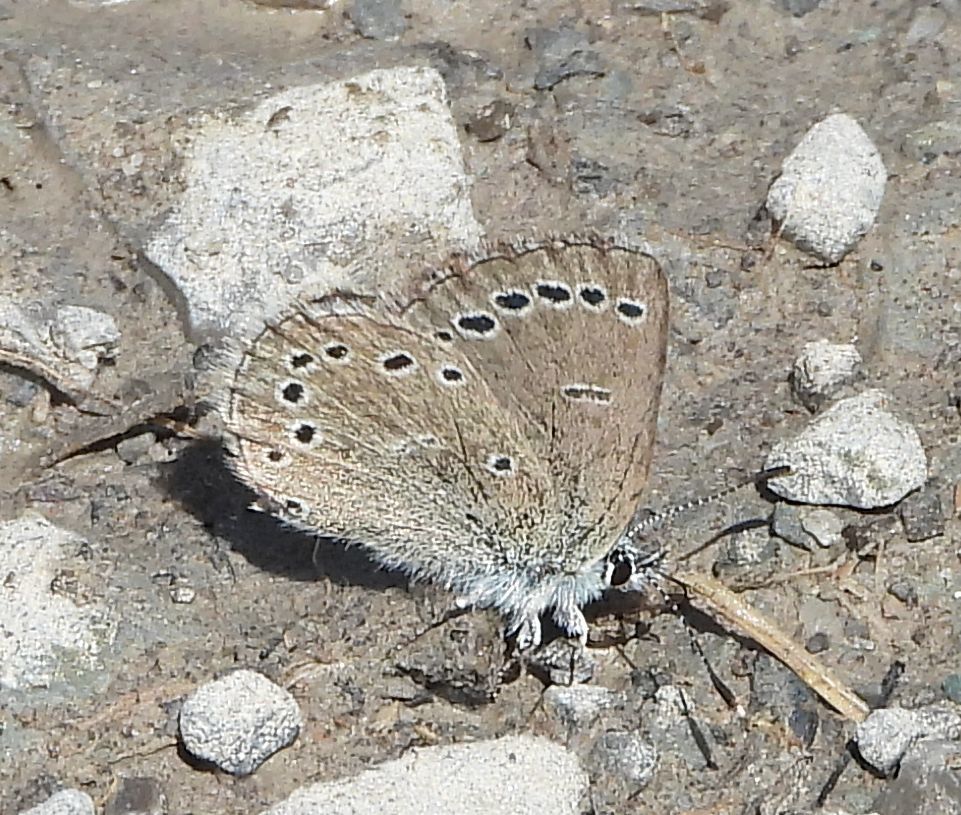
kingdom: Animalia
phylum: Arthropoda
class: Insecta
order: Lepidoptera
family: Lycaenidae
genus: Glaucopsyche
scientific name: Glaucopsyche lygdamus
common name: Silvery blue
